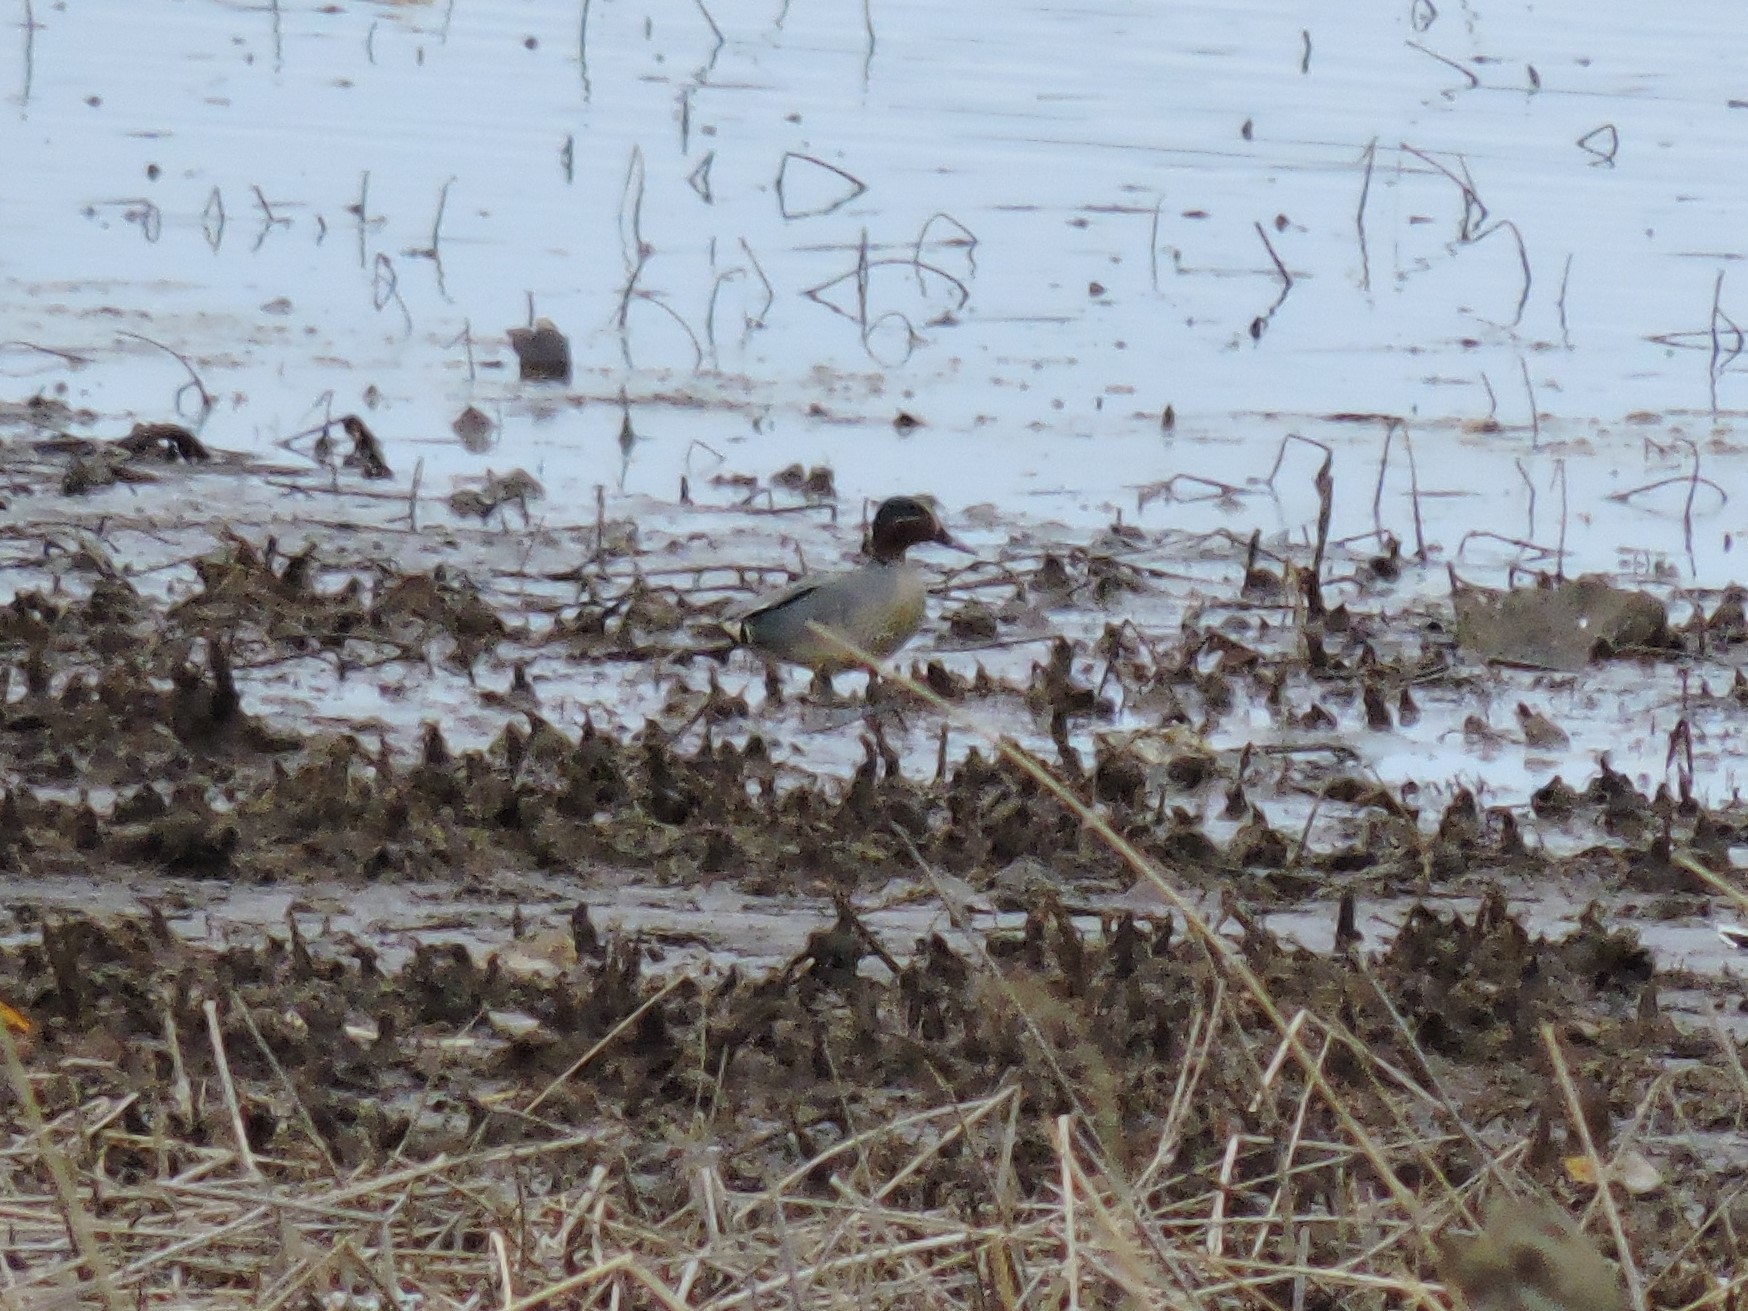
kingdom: Animalia
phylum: Chordata
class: Aves
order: Anseriformes
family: Anatidae
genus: Anas
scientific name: Anas crecca
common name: Eurasian teal
